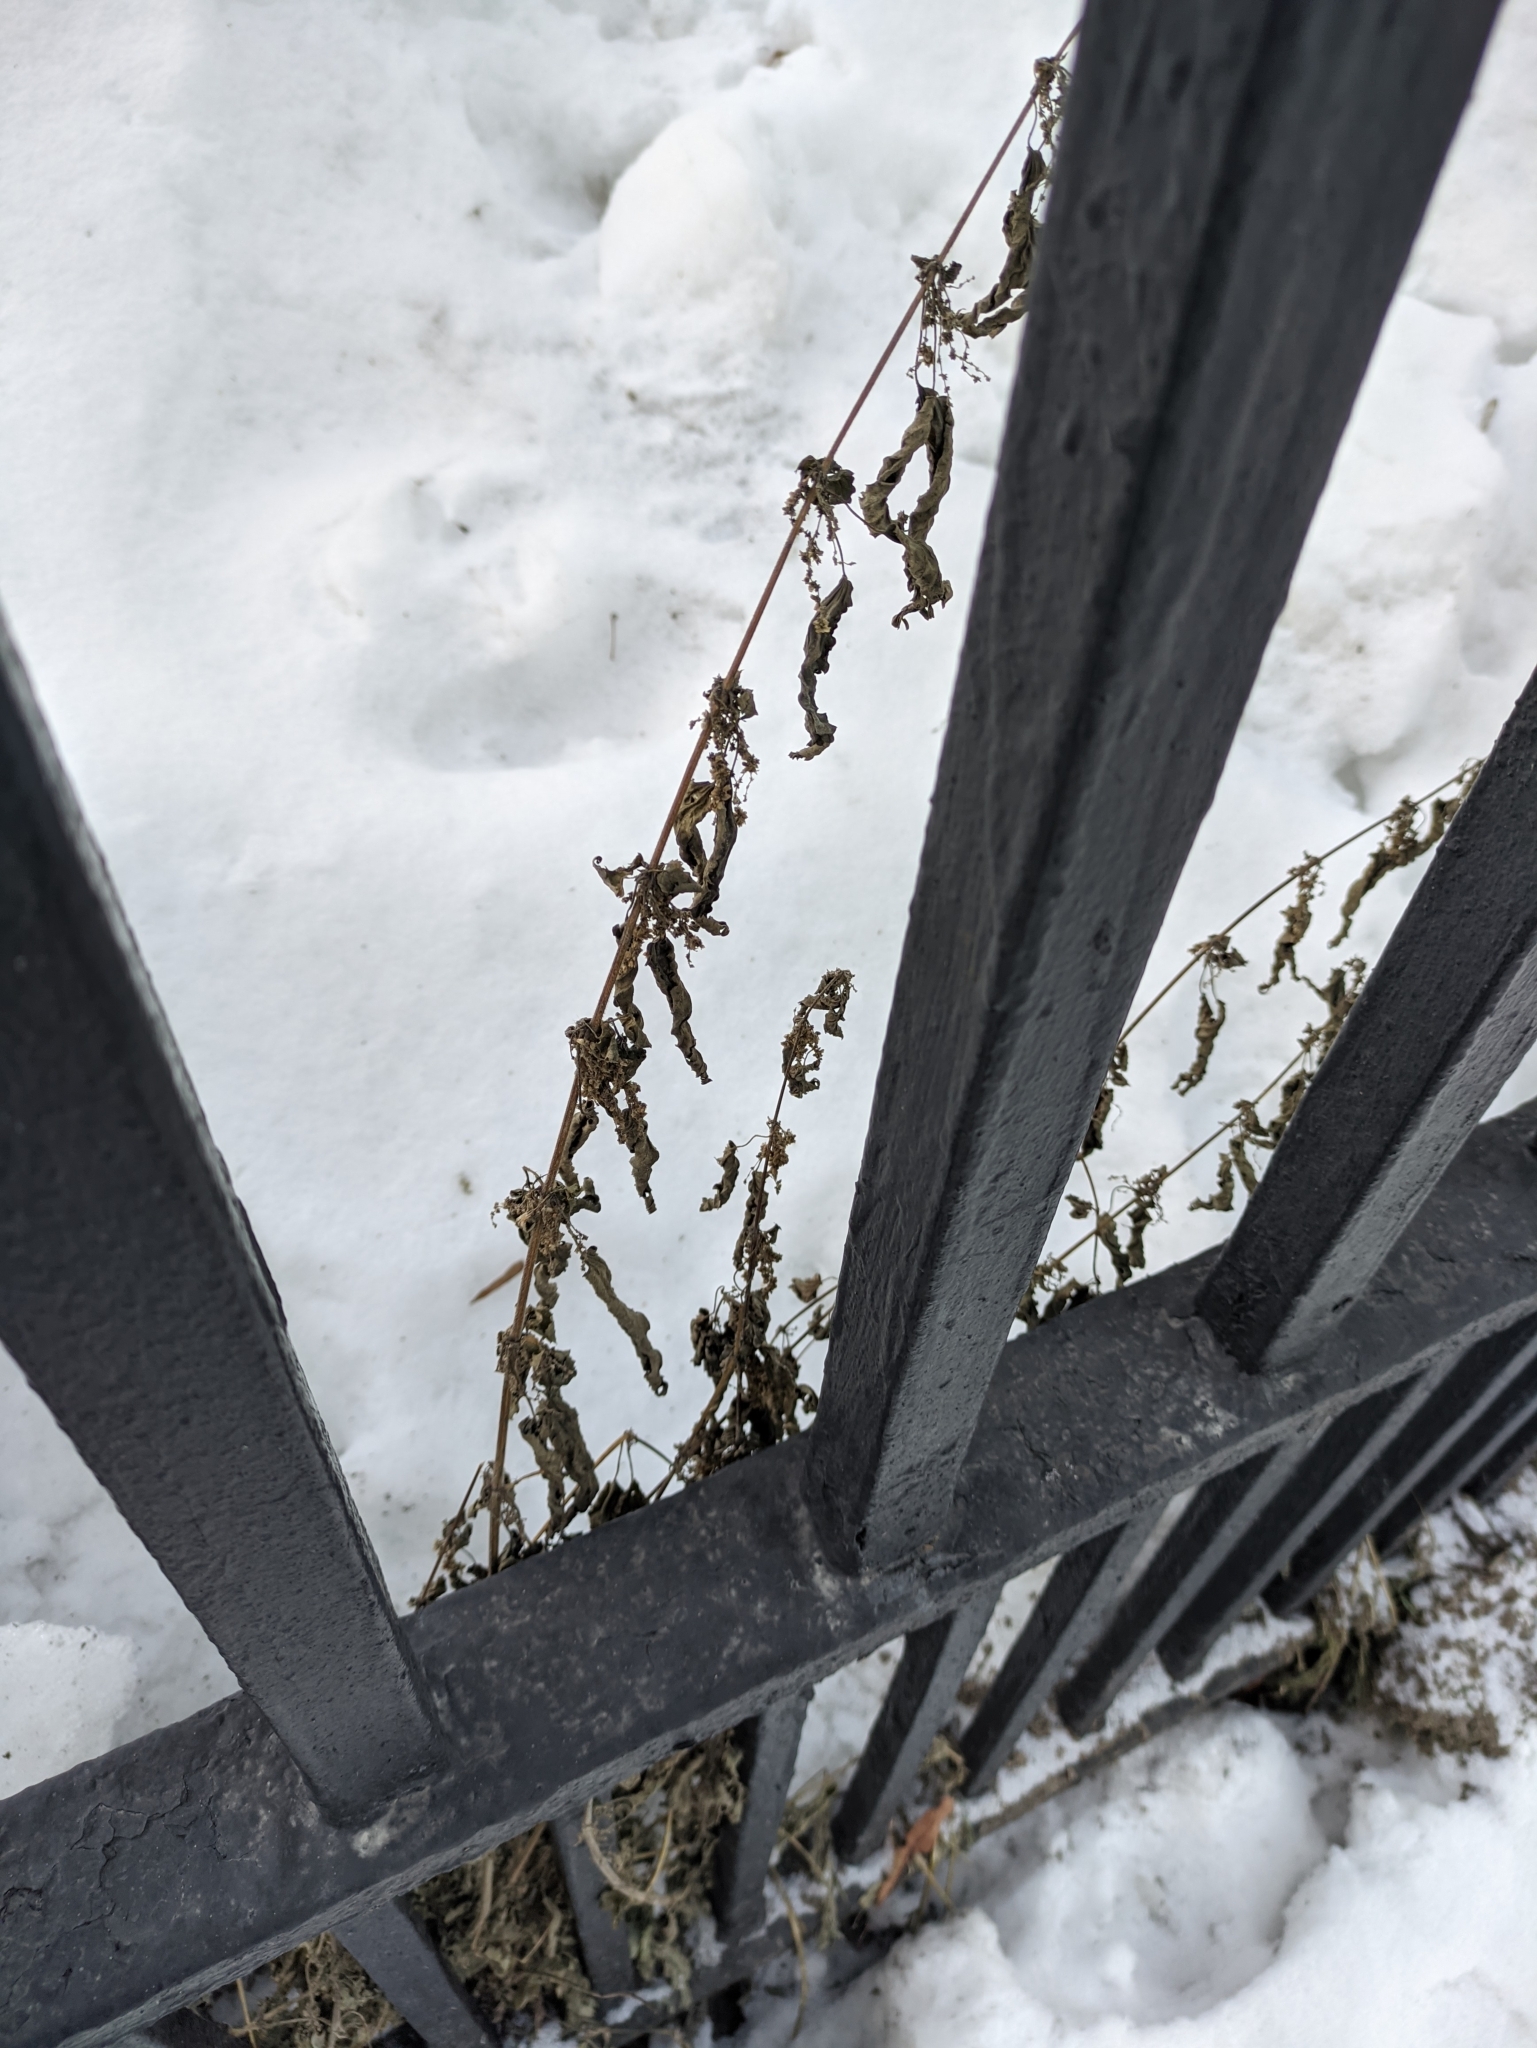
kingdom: Plantae
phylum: Tracheophyta
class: Magnoliopsida
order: Rosales
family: Urticaceae
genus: Urtica
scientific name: Urtica dioica
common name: Common nettle
